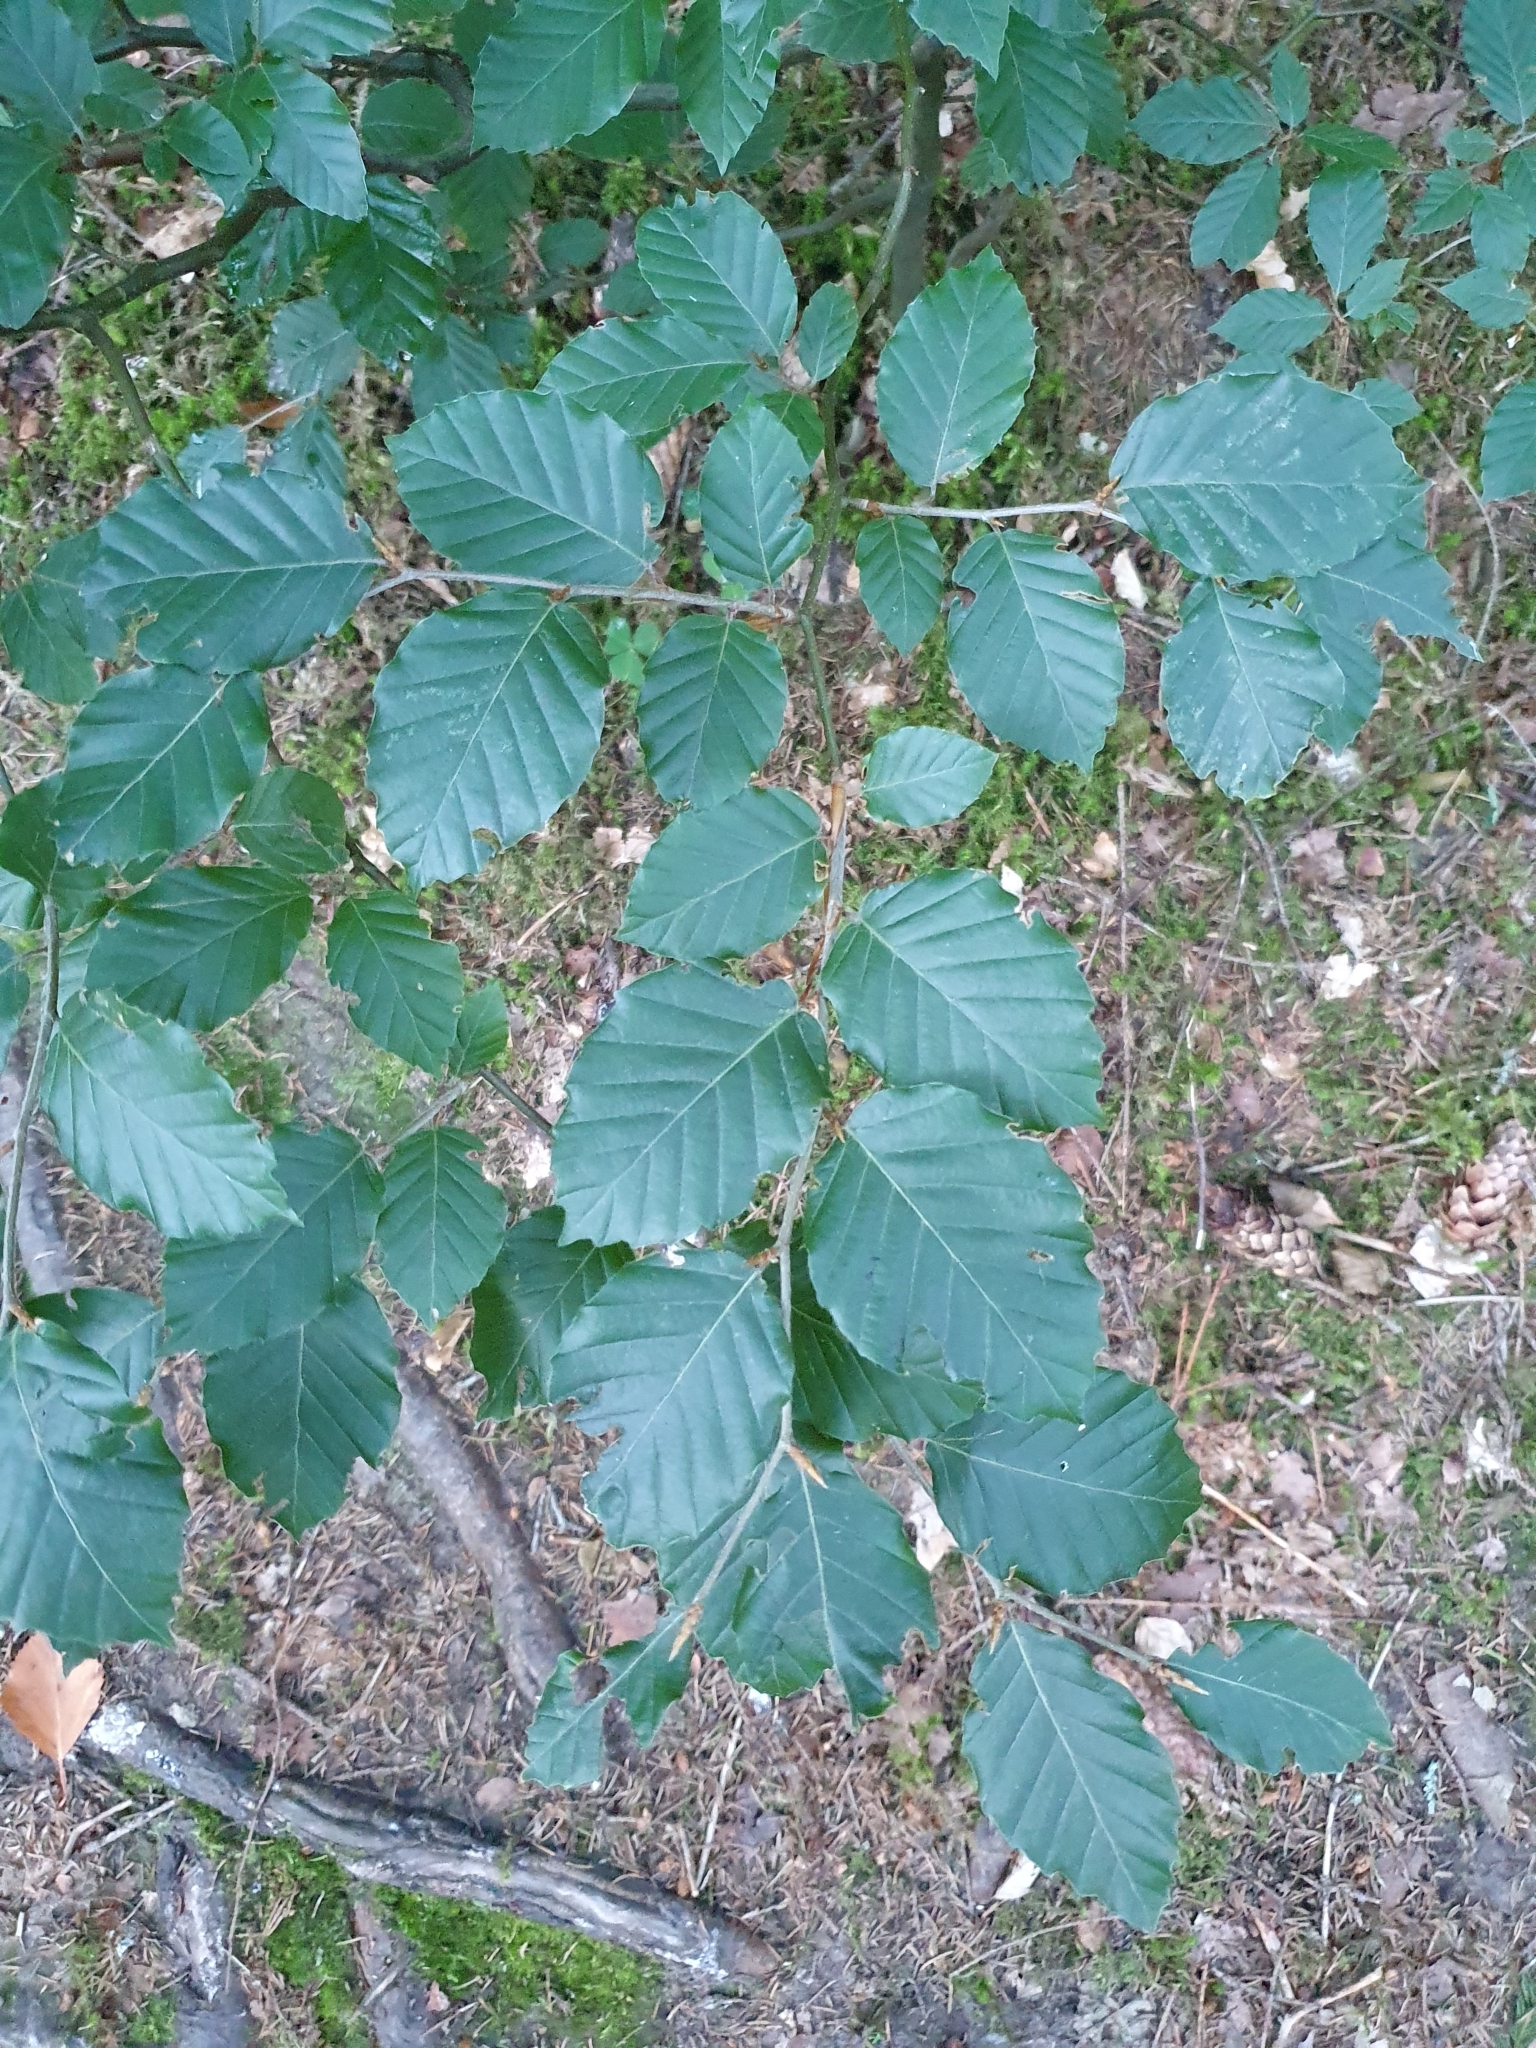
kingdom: Plantae
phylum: Tracheophyta
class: Magnoliopsida
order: Fagales
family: Fagaceae
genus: Fagus
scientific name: Fagus sylvatica
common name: Beech
